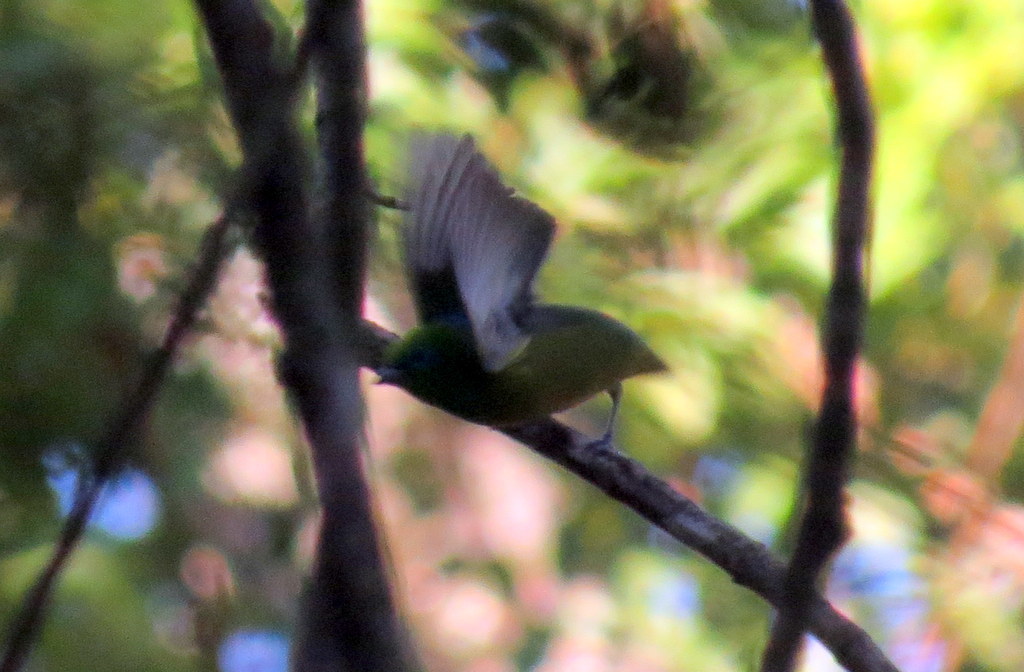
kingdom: Animalia
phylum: Chordata
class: Aves
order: Passeriformes
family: Fringillidae
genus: Chlorophonia
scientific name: Chlorophonia cyanea
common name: Blue-naped chlorophonia
